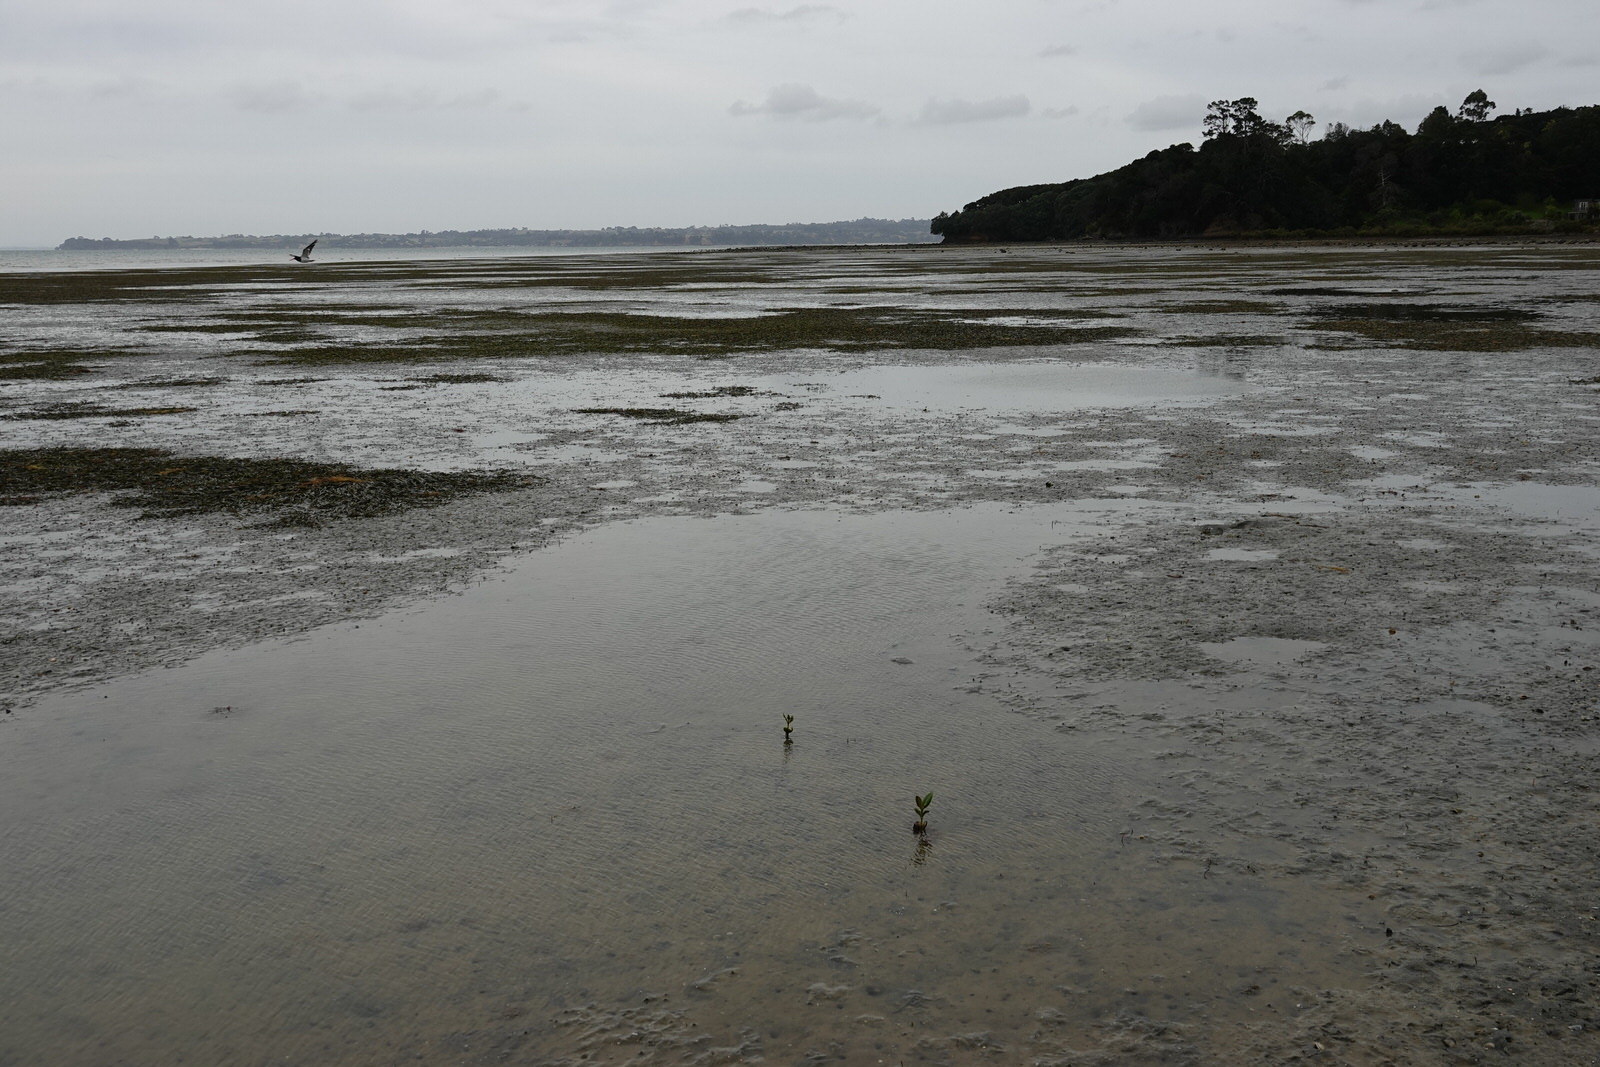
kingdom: Plantae
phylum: Tracheophyta
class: Magnoliopsida
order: Lamiales
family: Acanthaceae
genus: Avicennia
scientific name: Avicennia marina
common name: Gray mangrove
